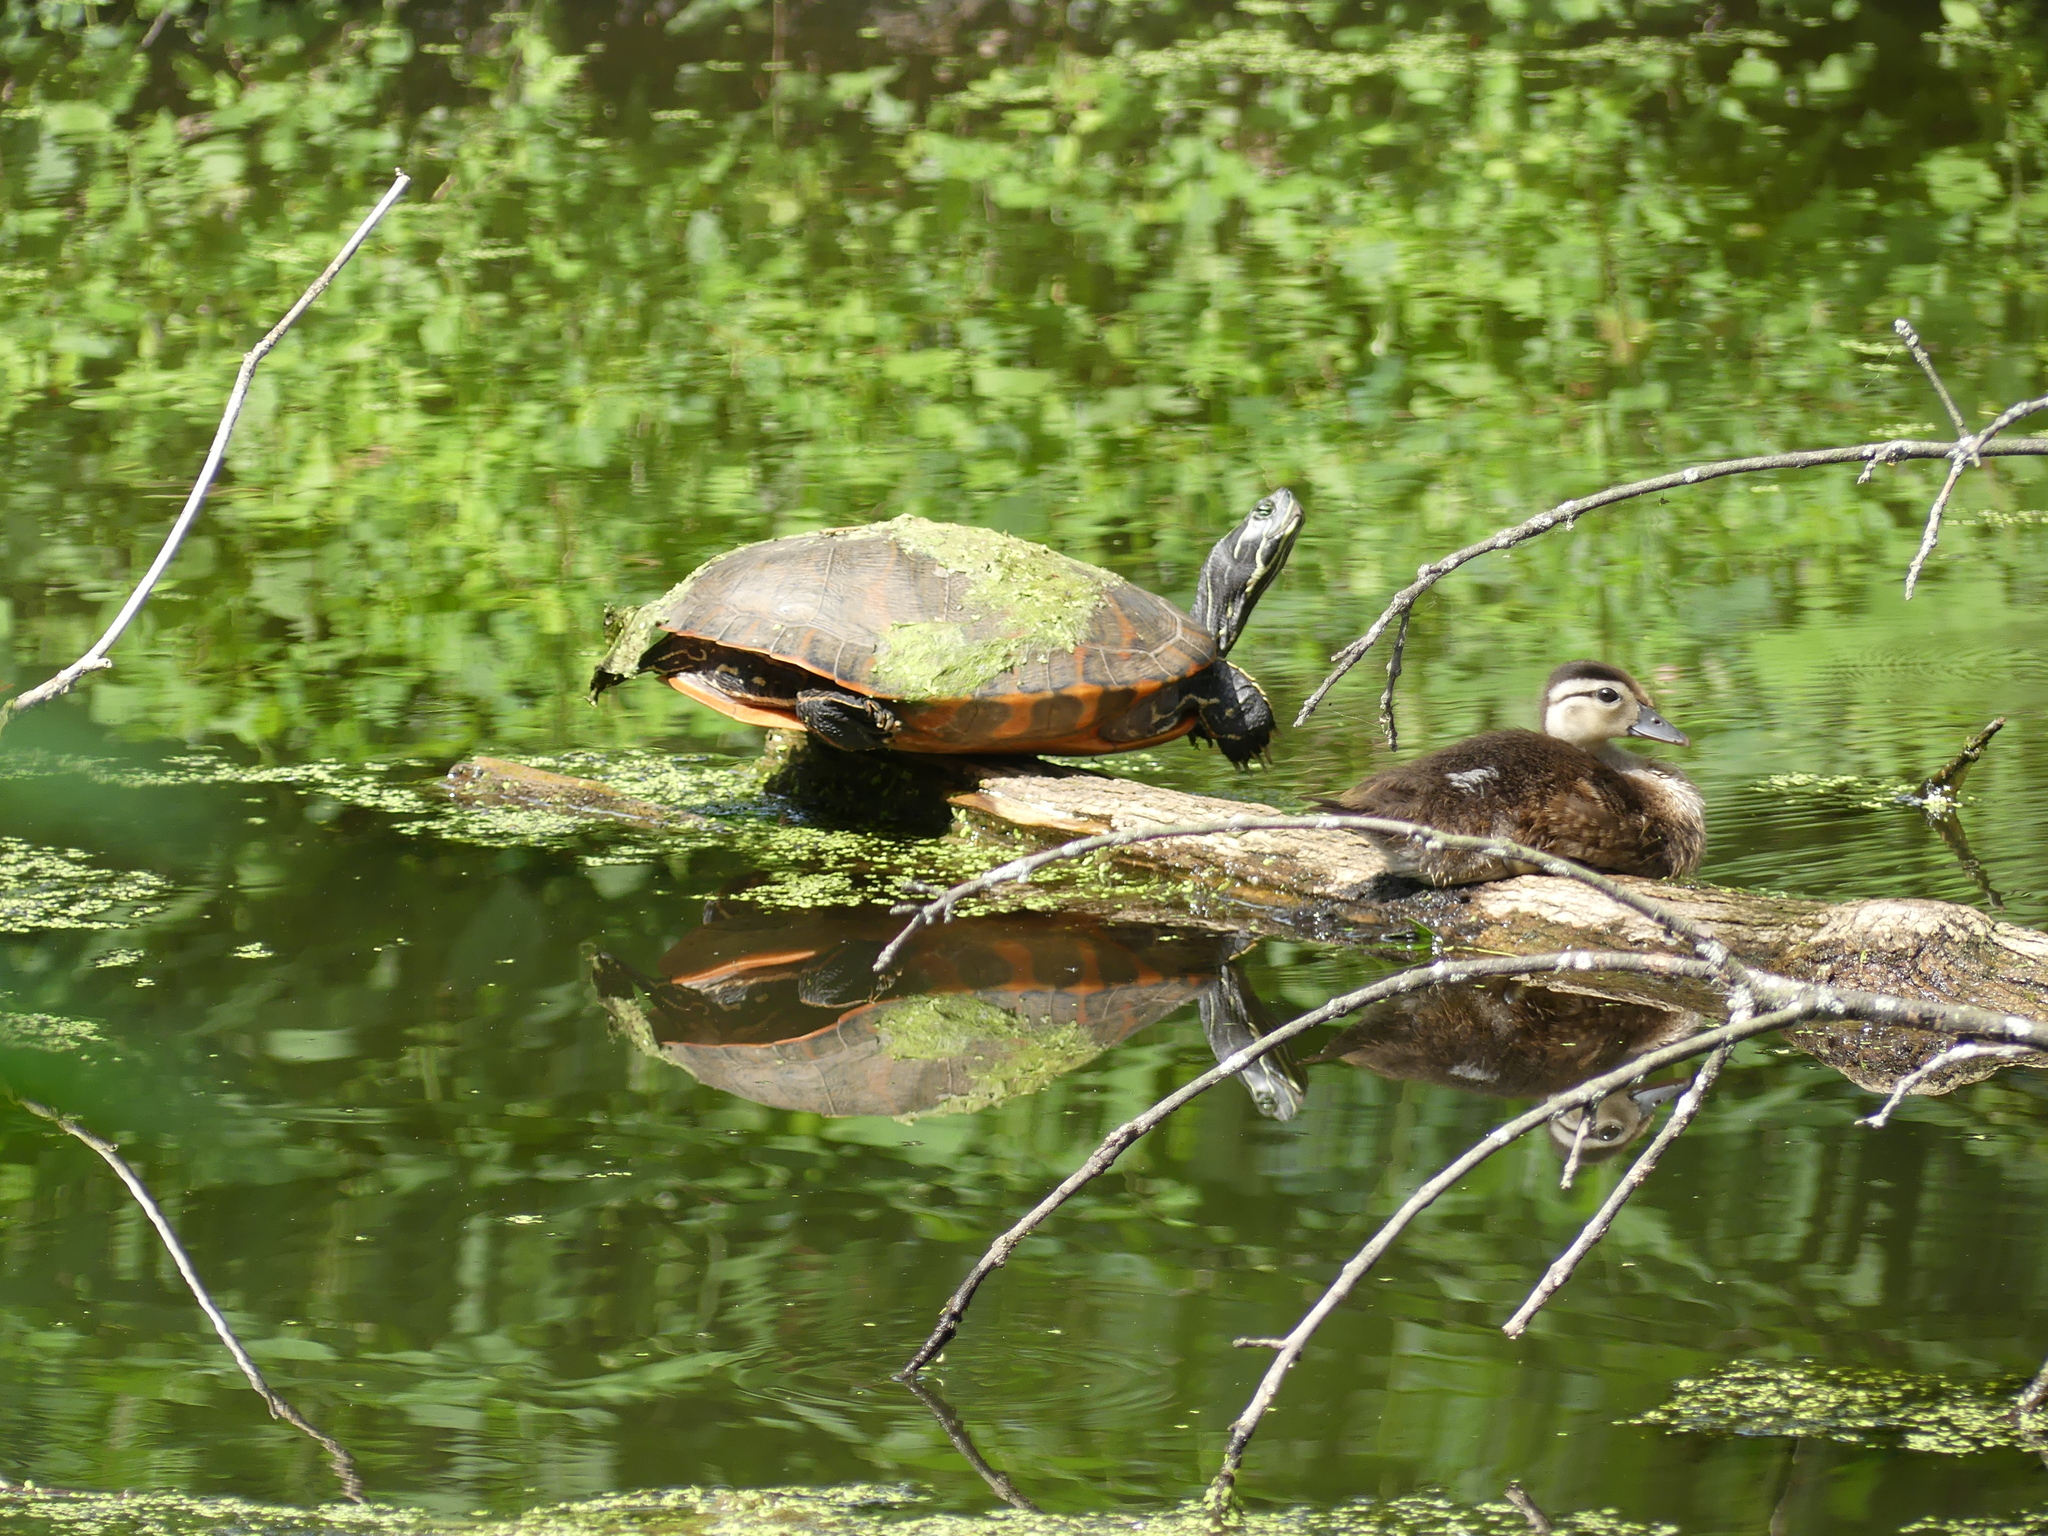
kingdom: Animalia
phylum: Chordata
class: Testudines
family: Emydidae
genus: Pseudemys
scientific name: Pseudemys rubriventris
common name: American red-bellied turtle
